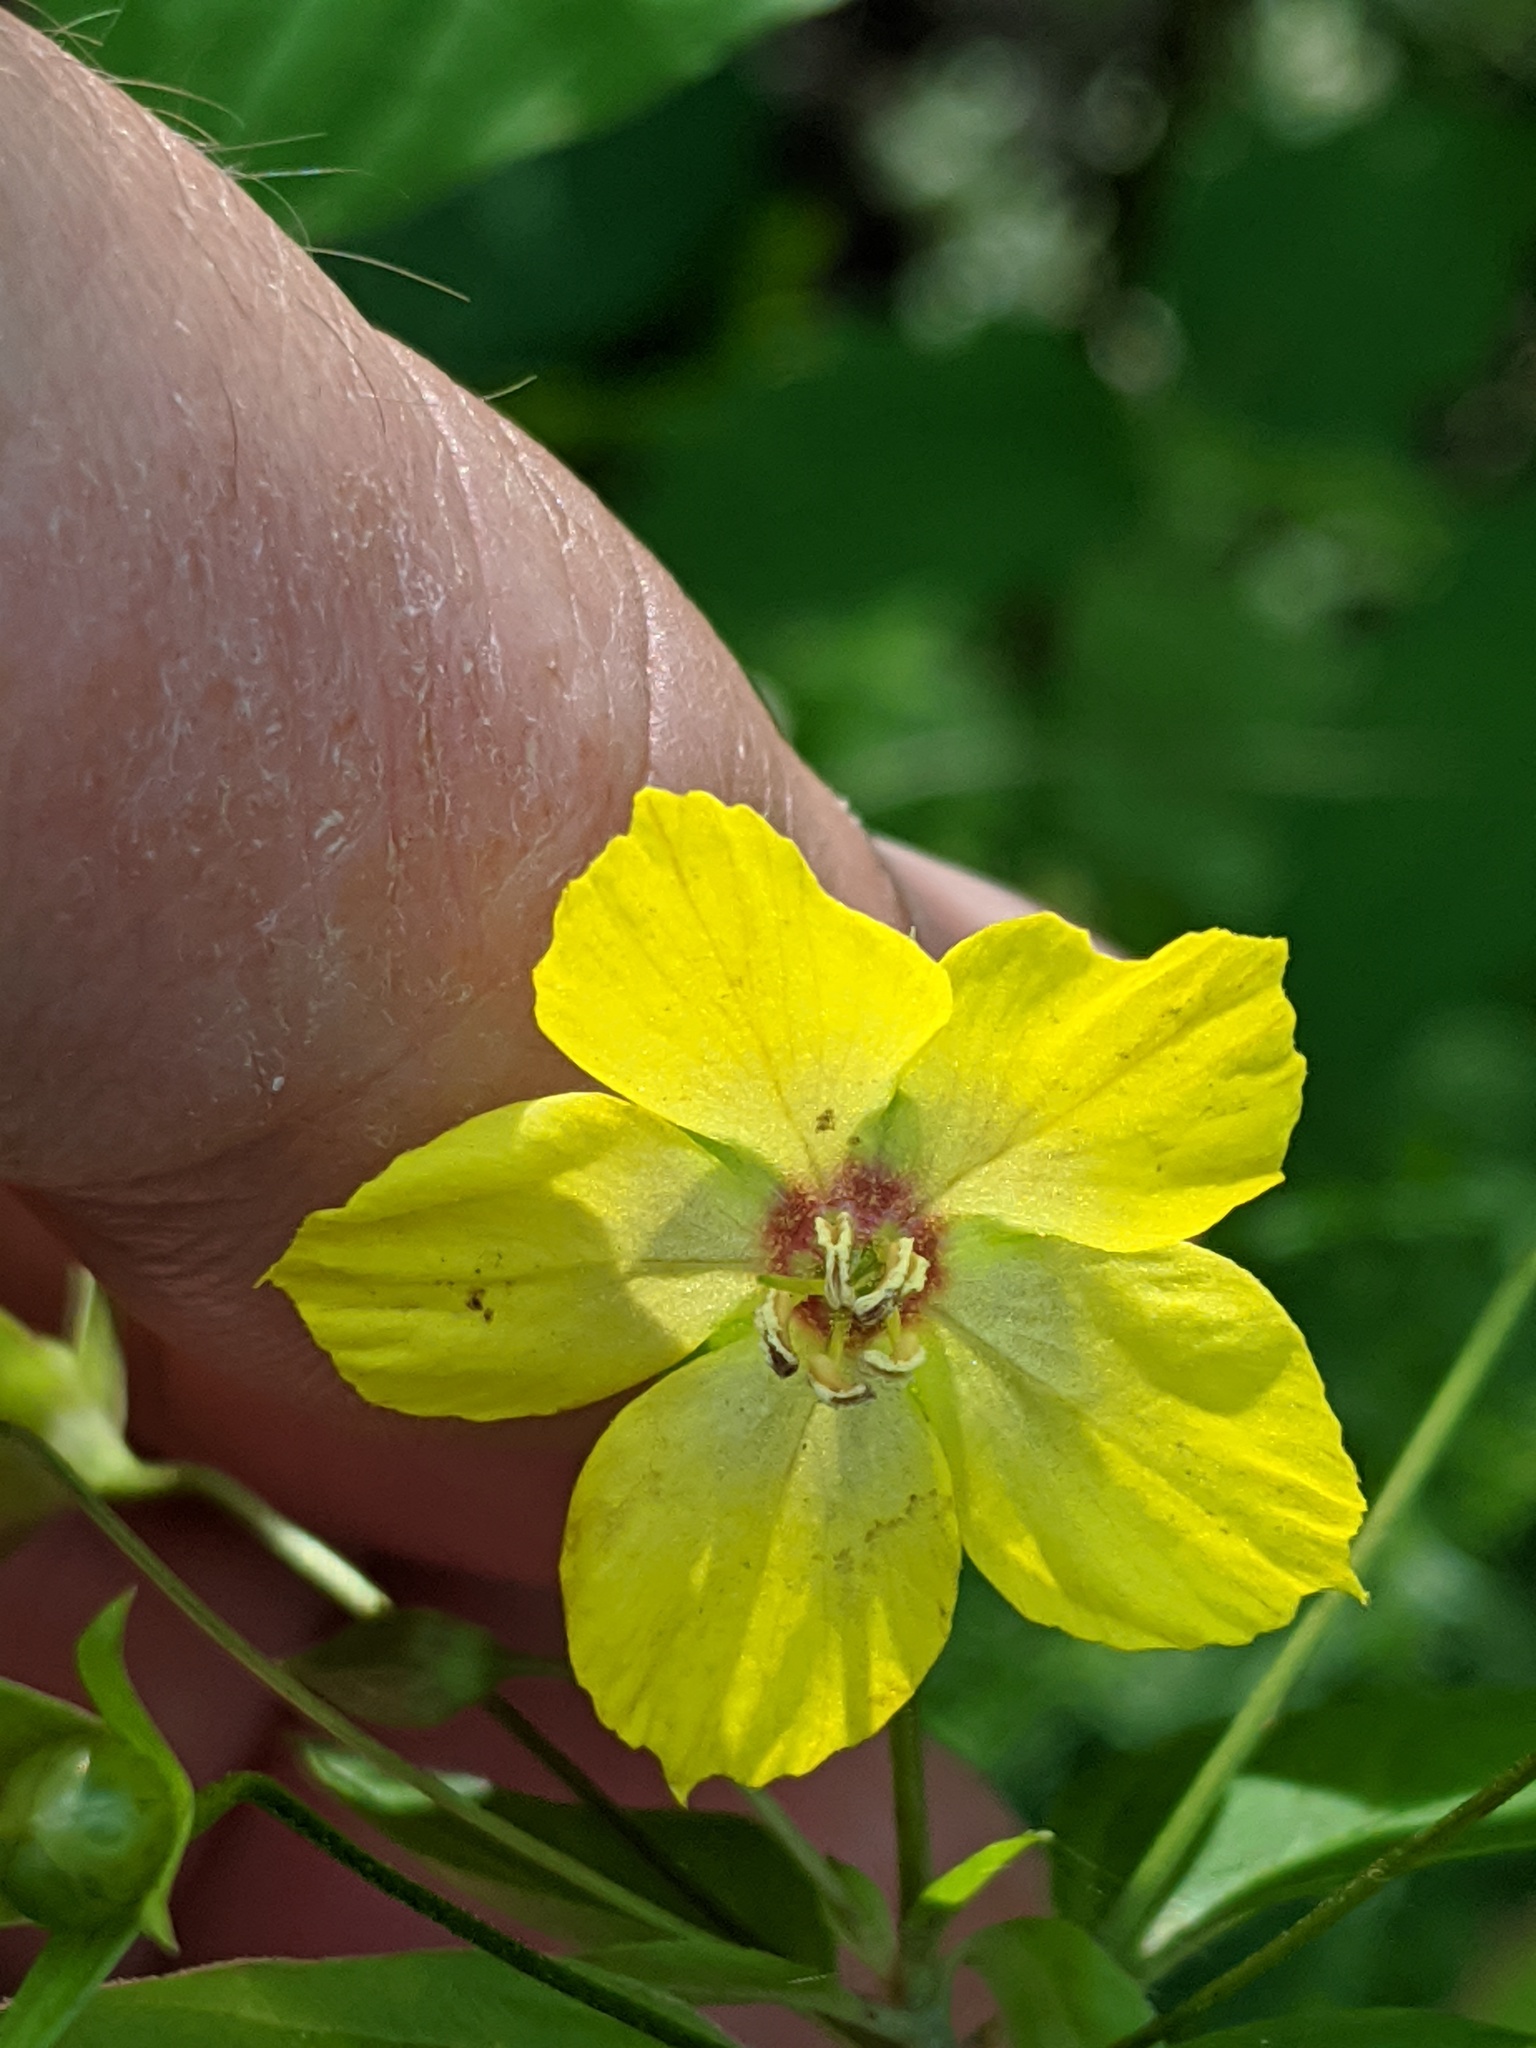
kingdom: Plantae
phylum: Tracheophyta
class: Magnoliopsida
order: Ericales
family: Primulaceae
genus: Lysimachia
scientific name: Lysimachia ciliata
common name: Fringed loosestrife
